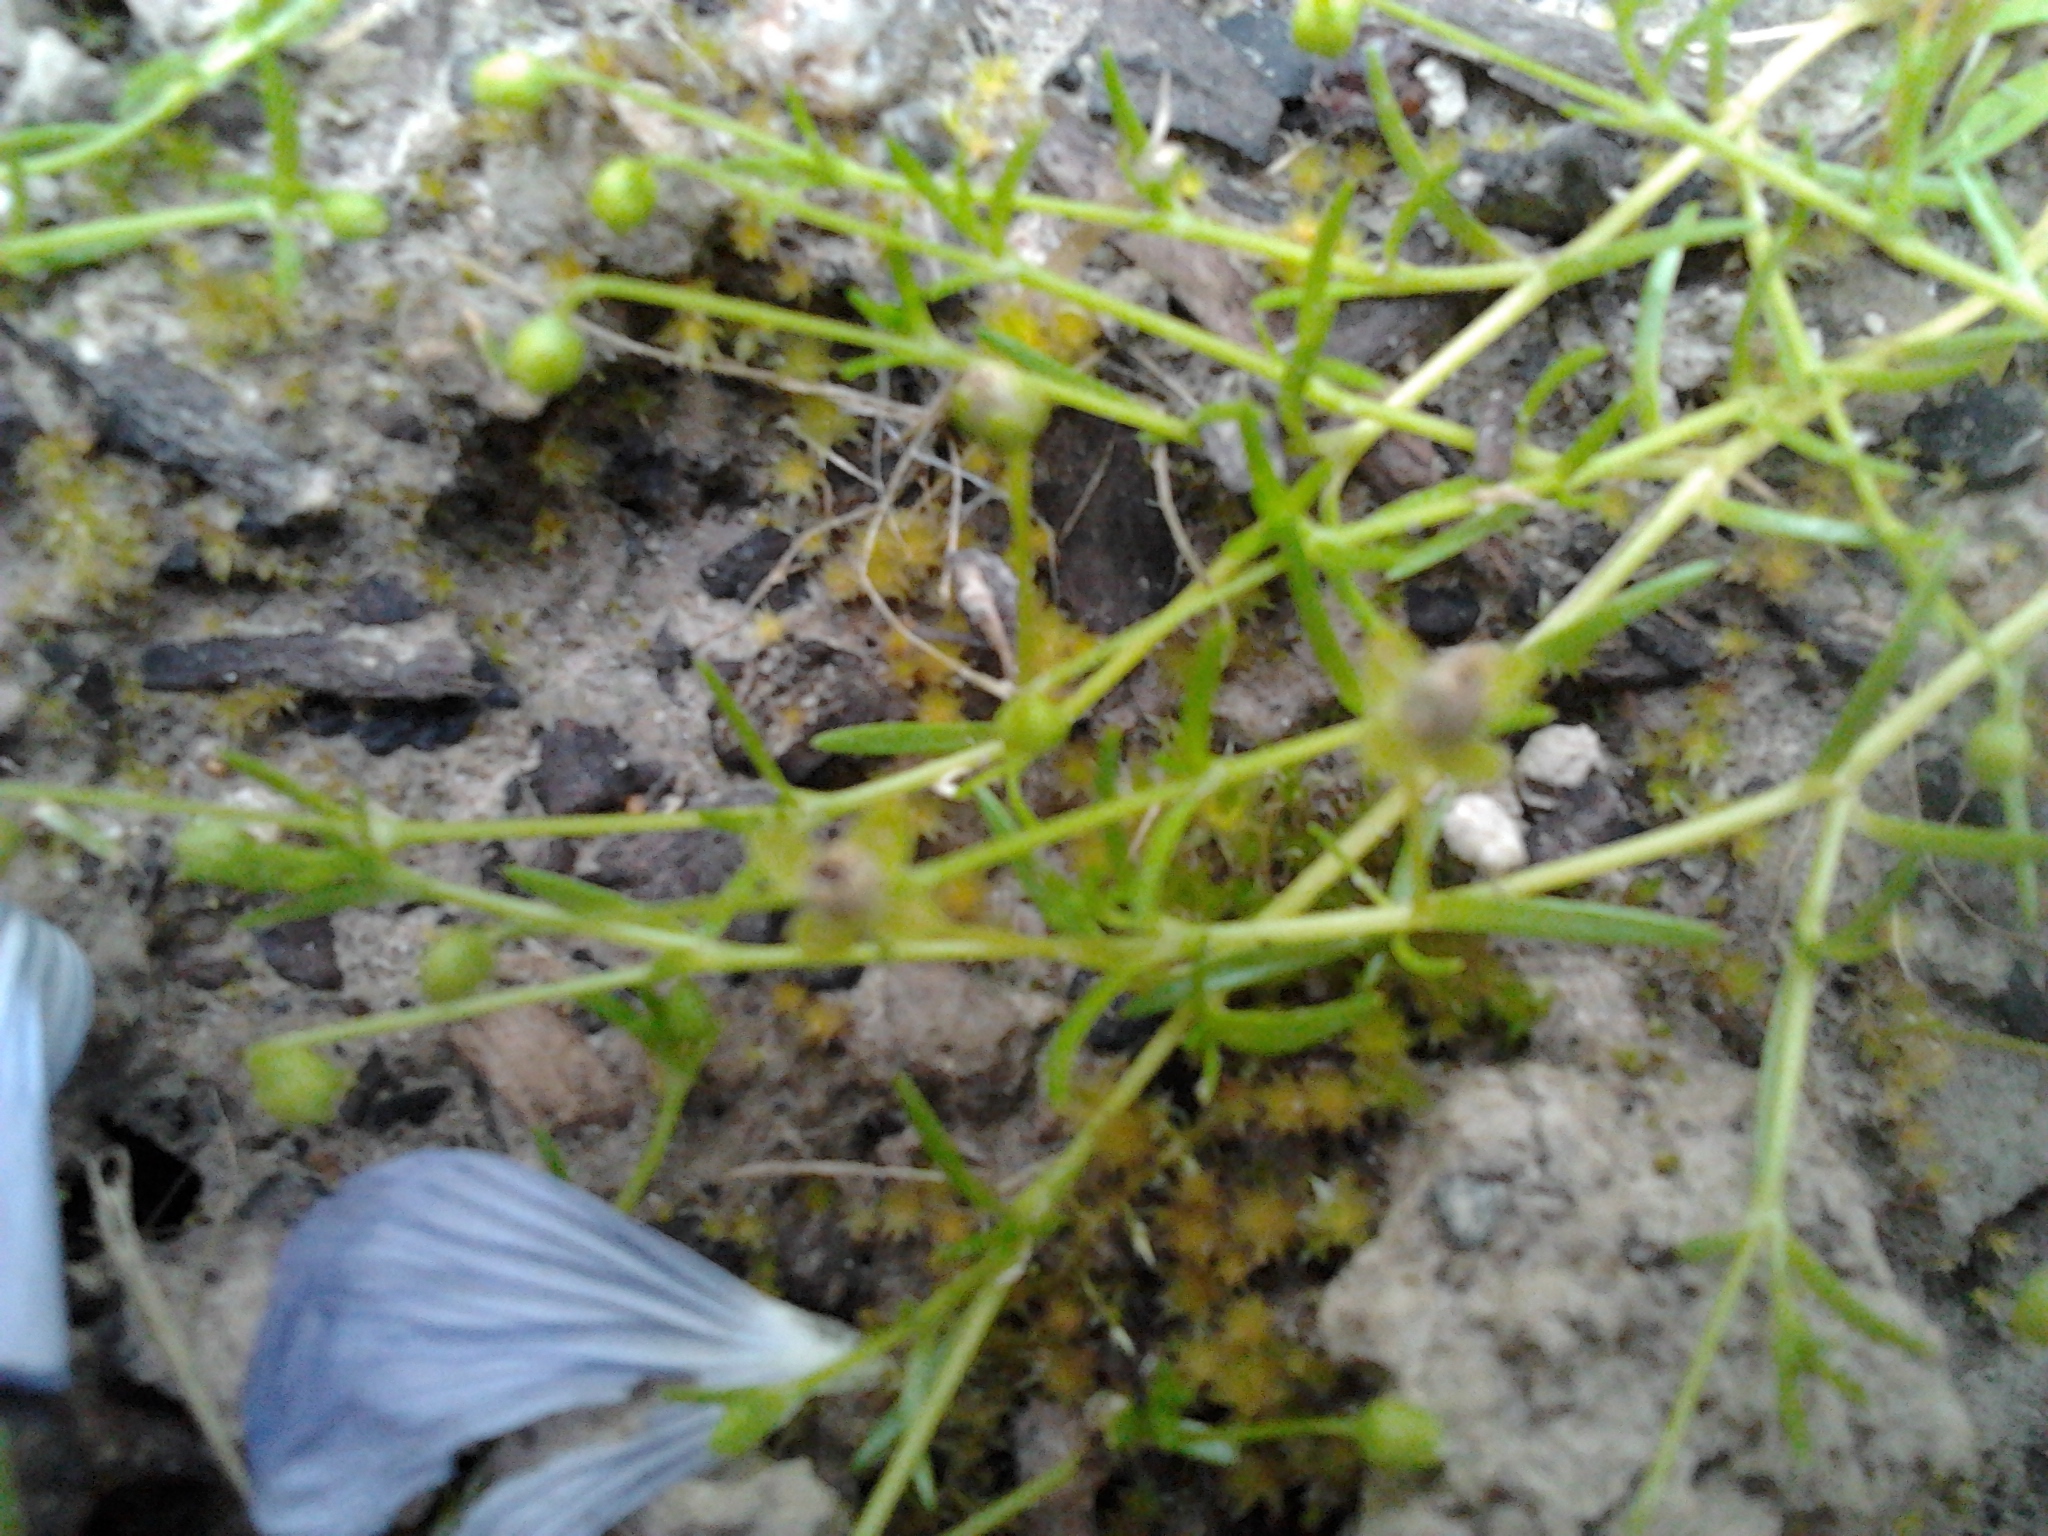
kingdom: Plantae
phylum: Tracheophyta
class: Magnoliopsida
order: Caryophyllales
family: Caryophyllaceae
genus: Sagina
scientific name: Sagina procumbens
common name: Procumbent pearlwort
